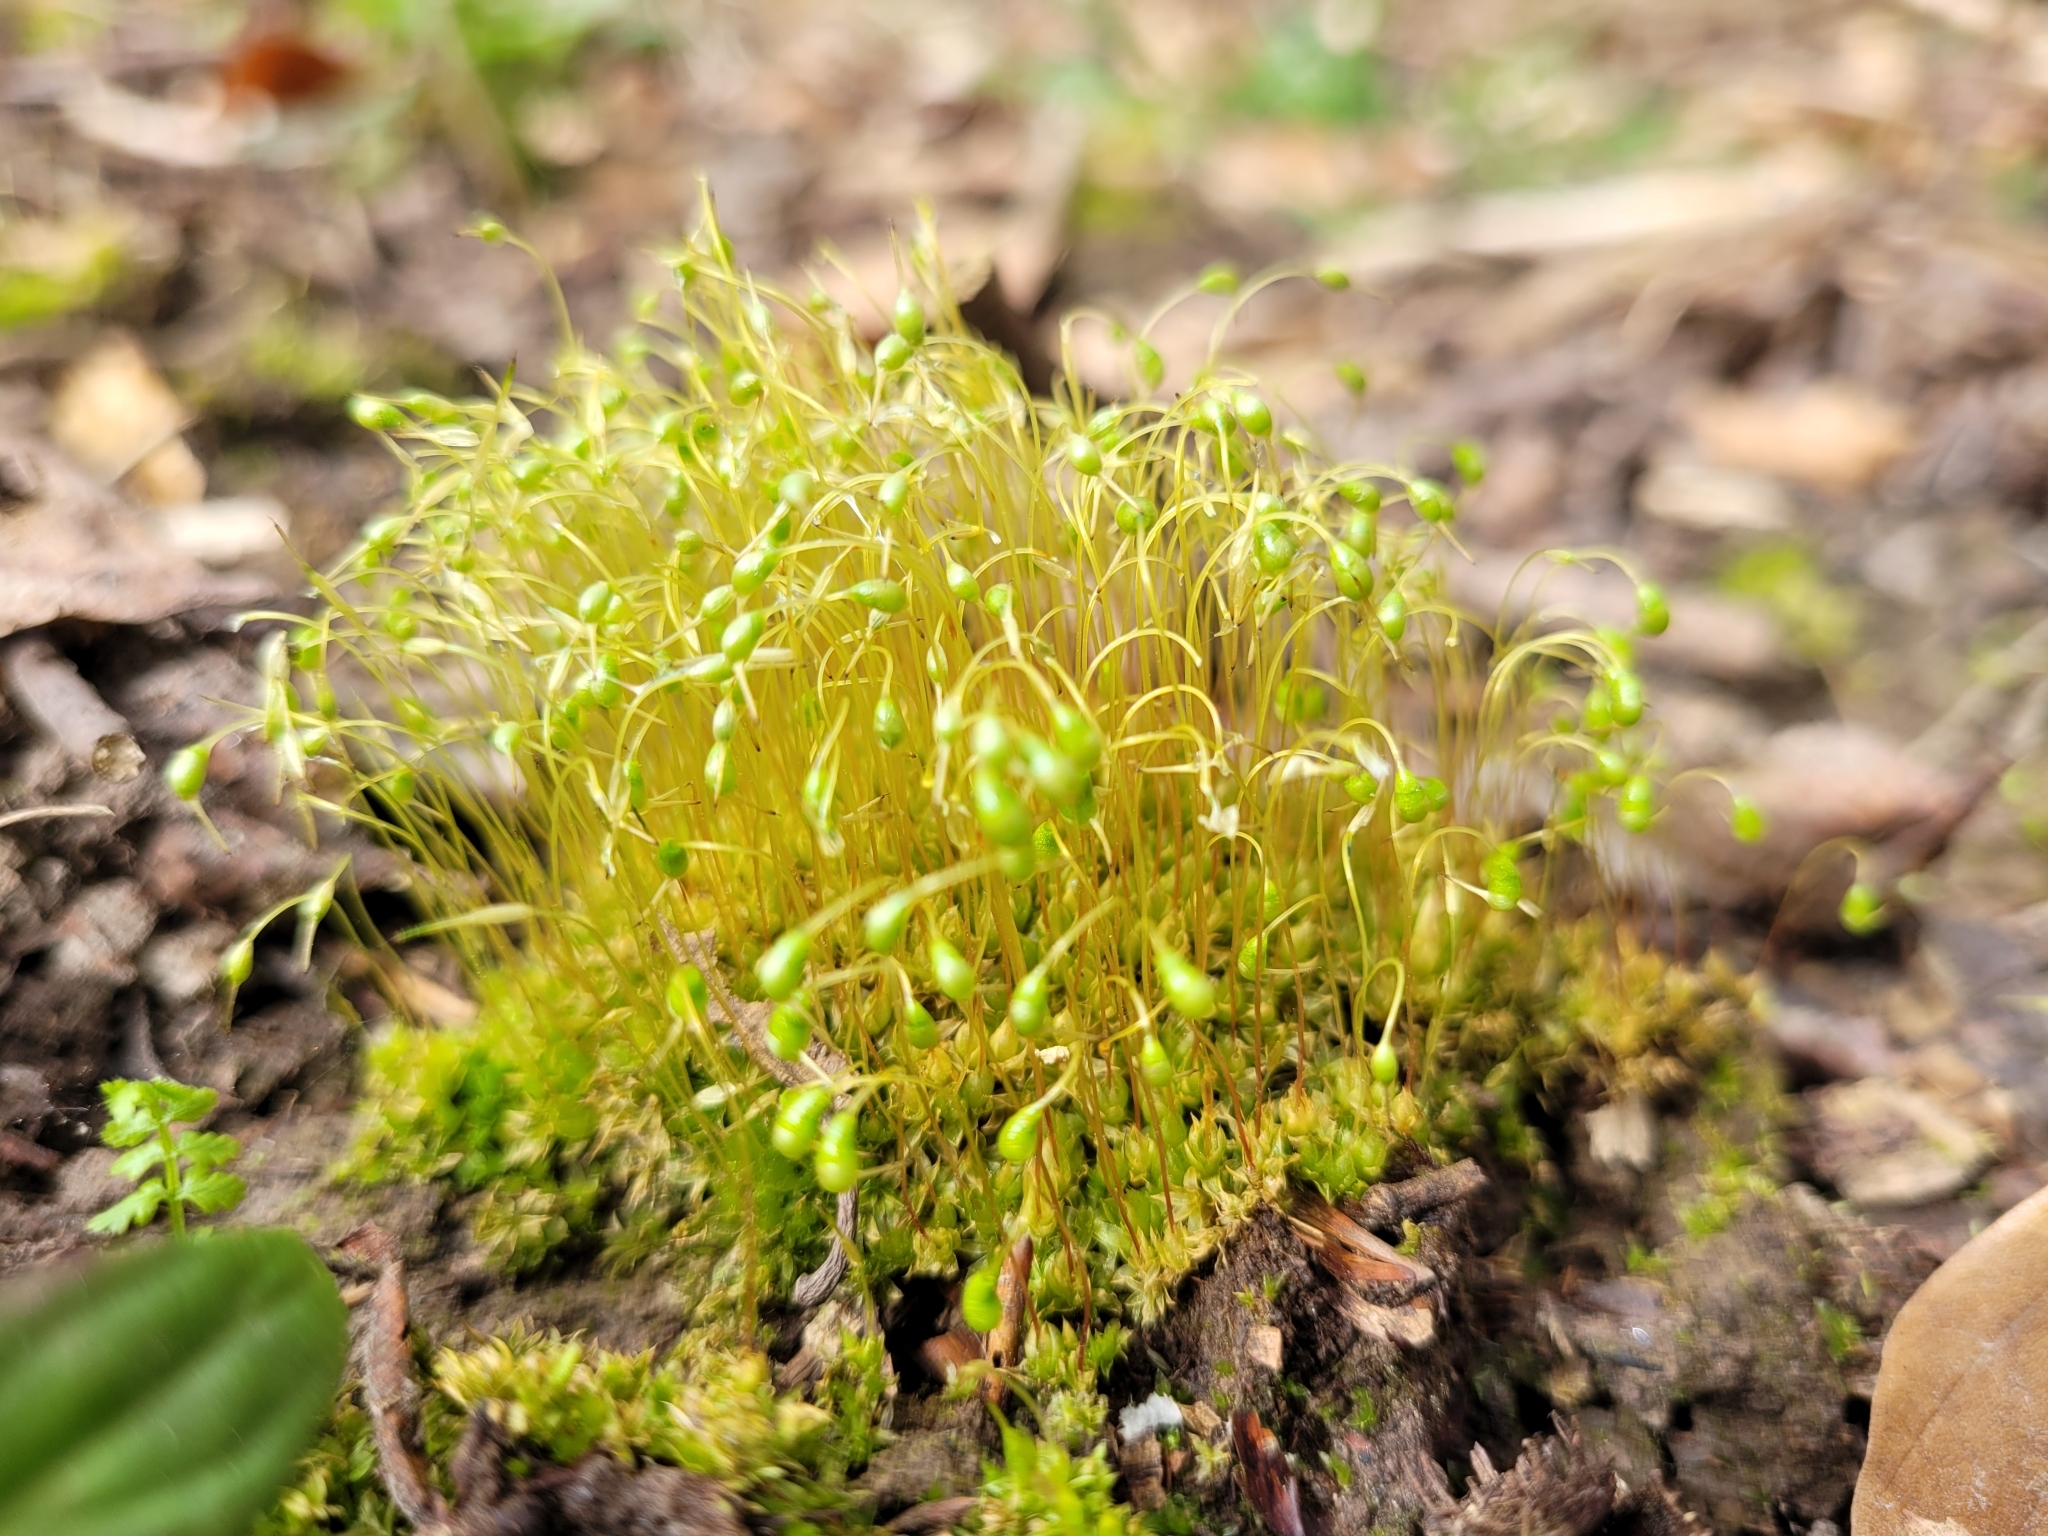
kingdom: Plantae
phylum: Bryophyta
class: Bryopsida
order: Funariales
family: Funariaceae
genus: Funaria
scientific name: Funaria hygrometrica
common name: Common cord moss
